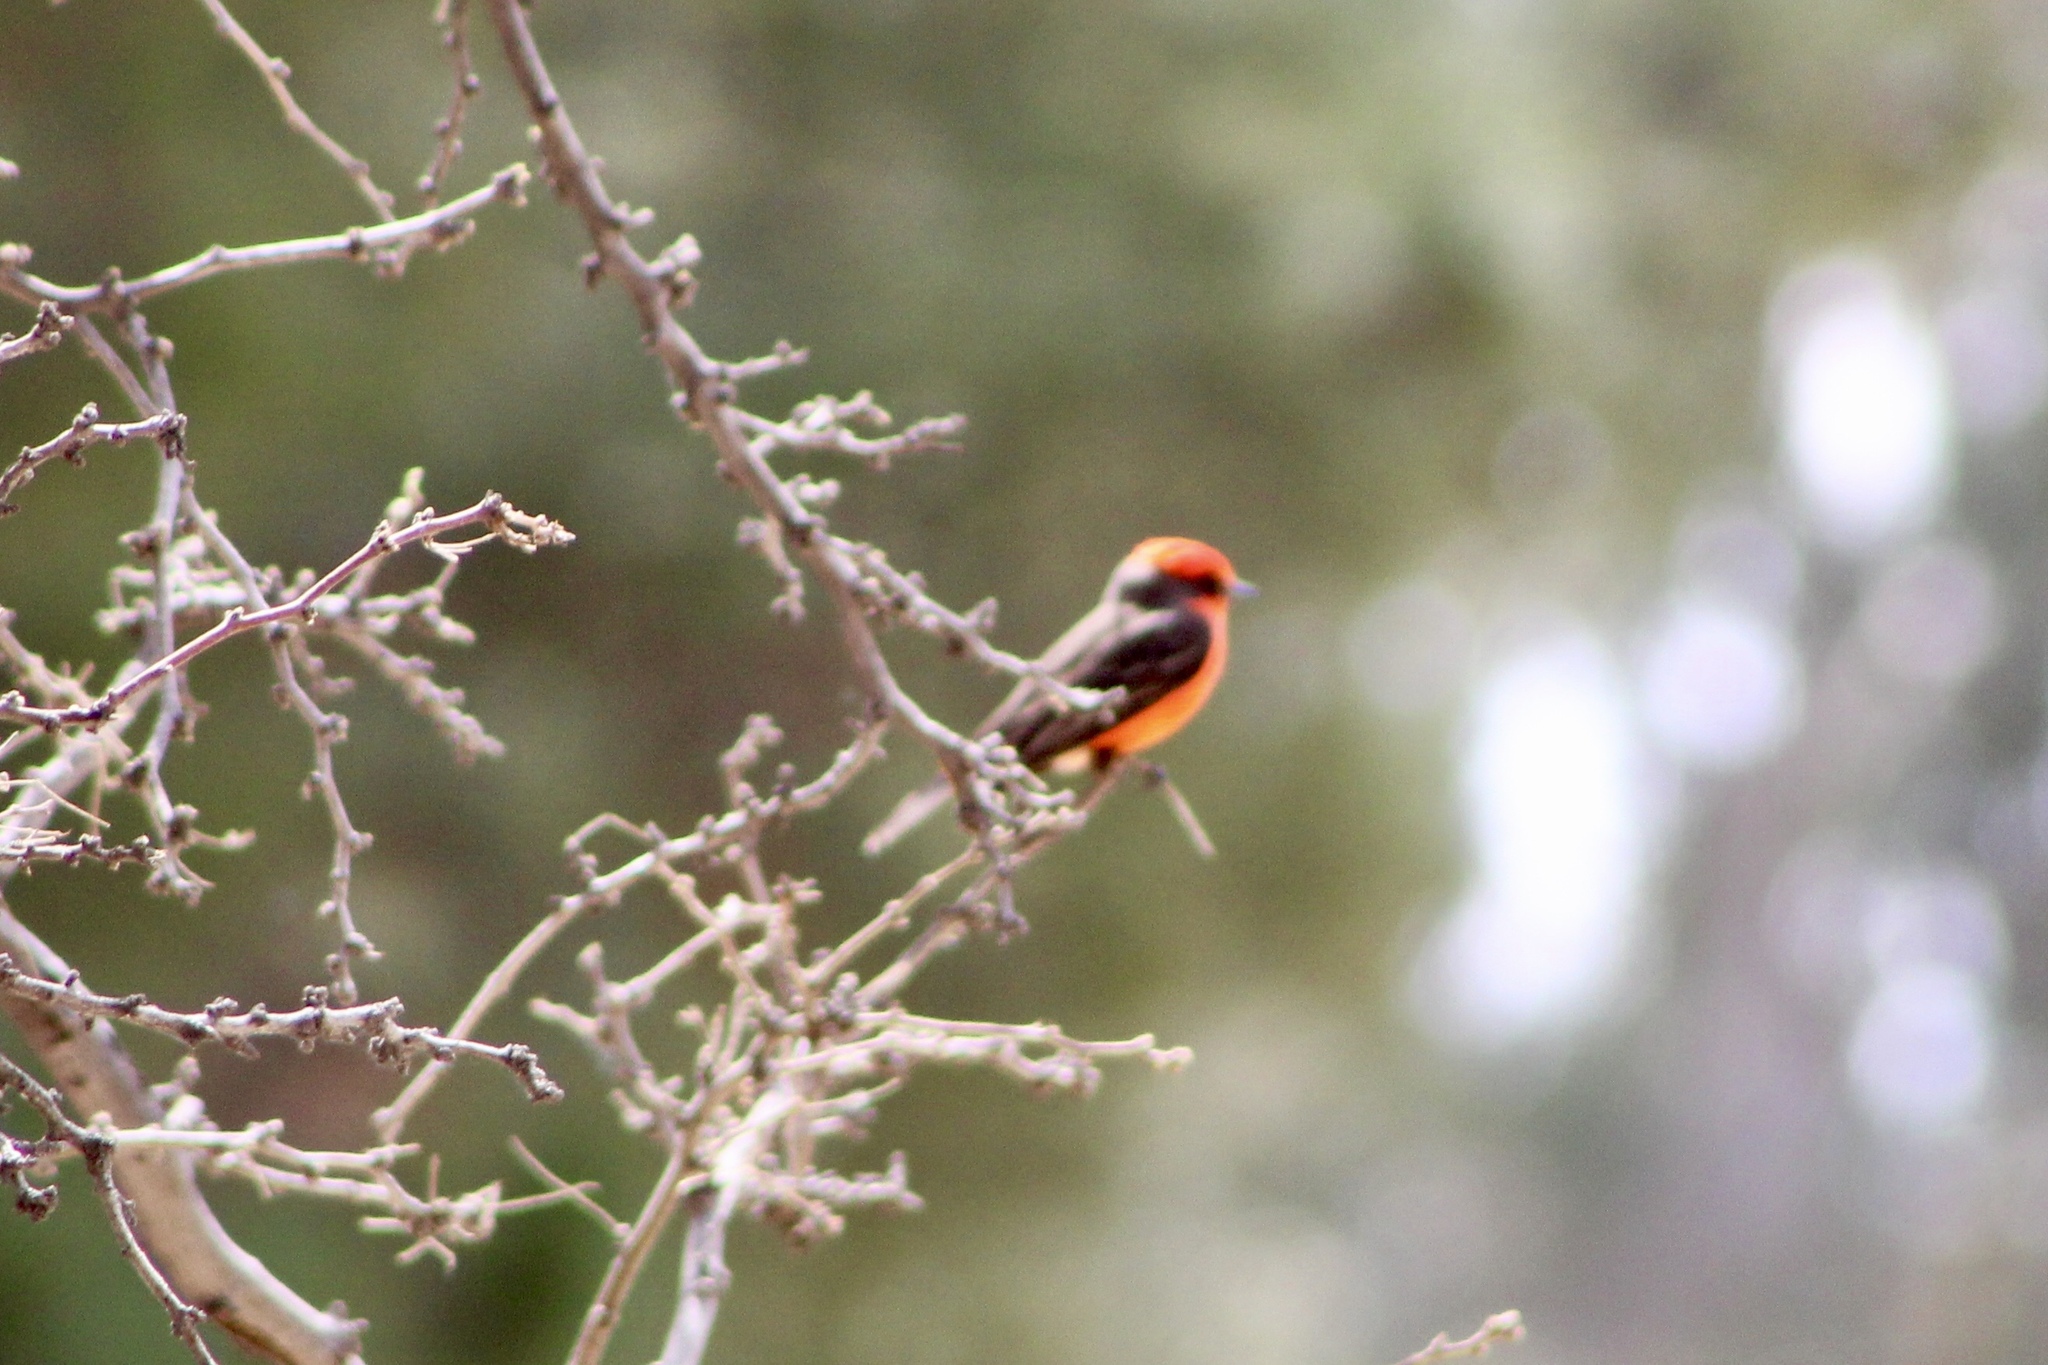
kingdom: Animalia
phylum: Chordata
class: Aves
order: Passeriformes
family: Tyrannidae
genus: Pyrocephalus
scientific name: Pyrocephalus rubinus
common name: Vermilion flycatcher
